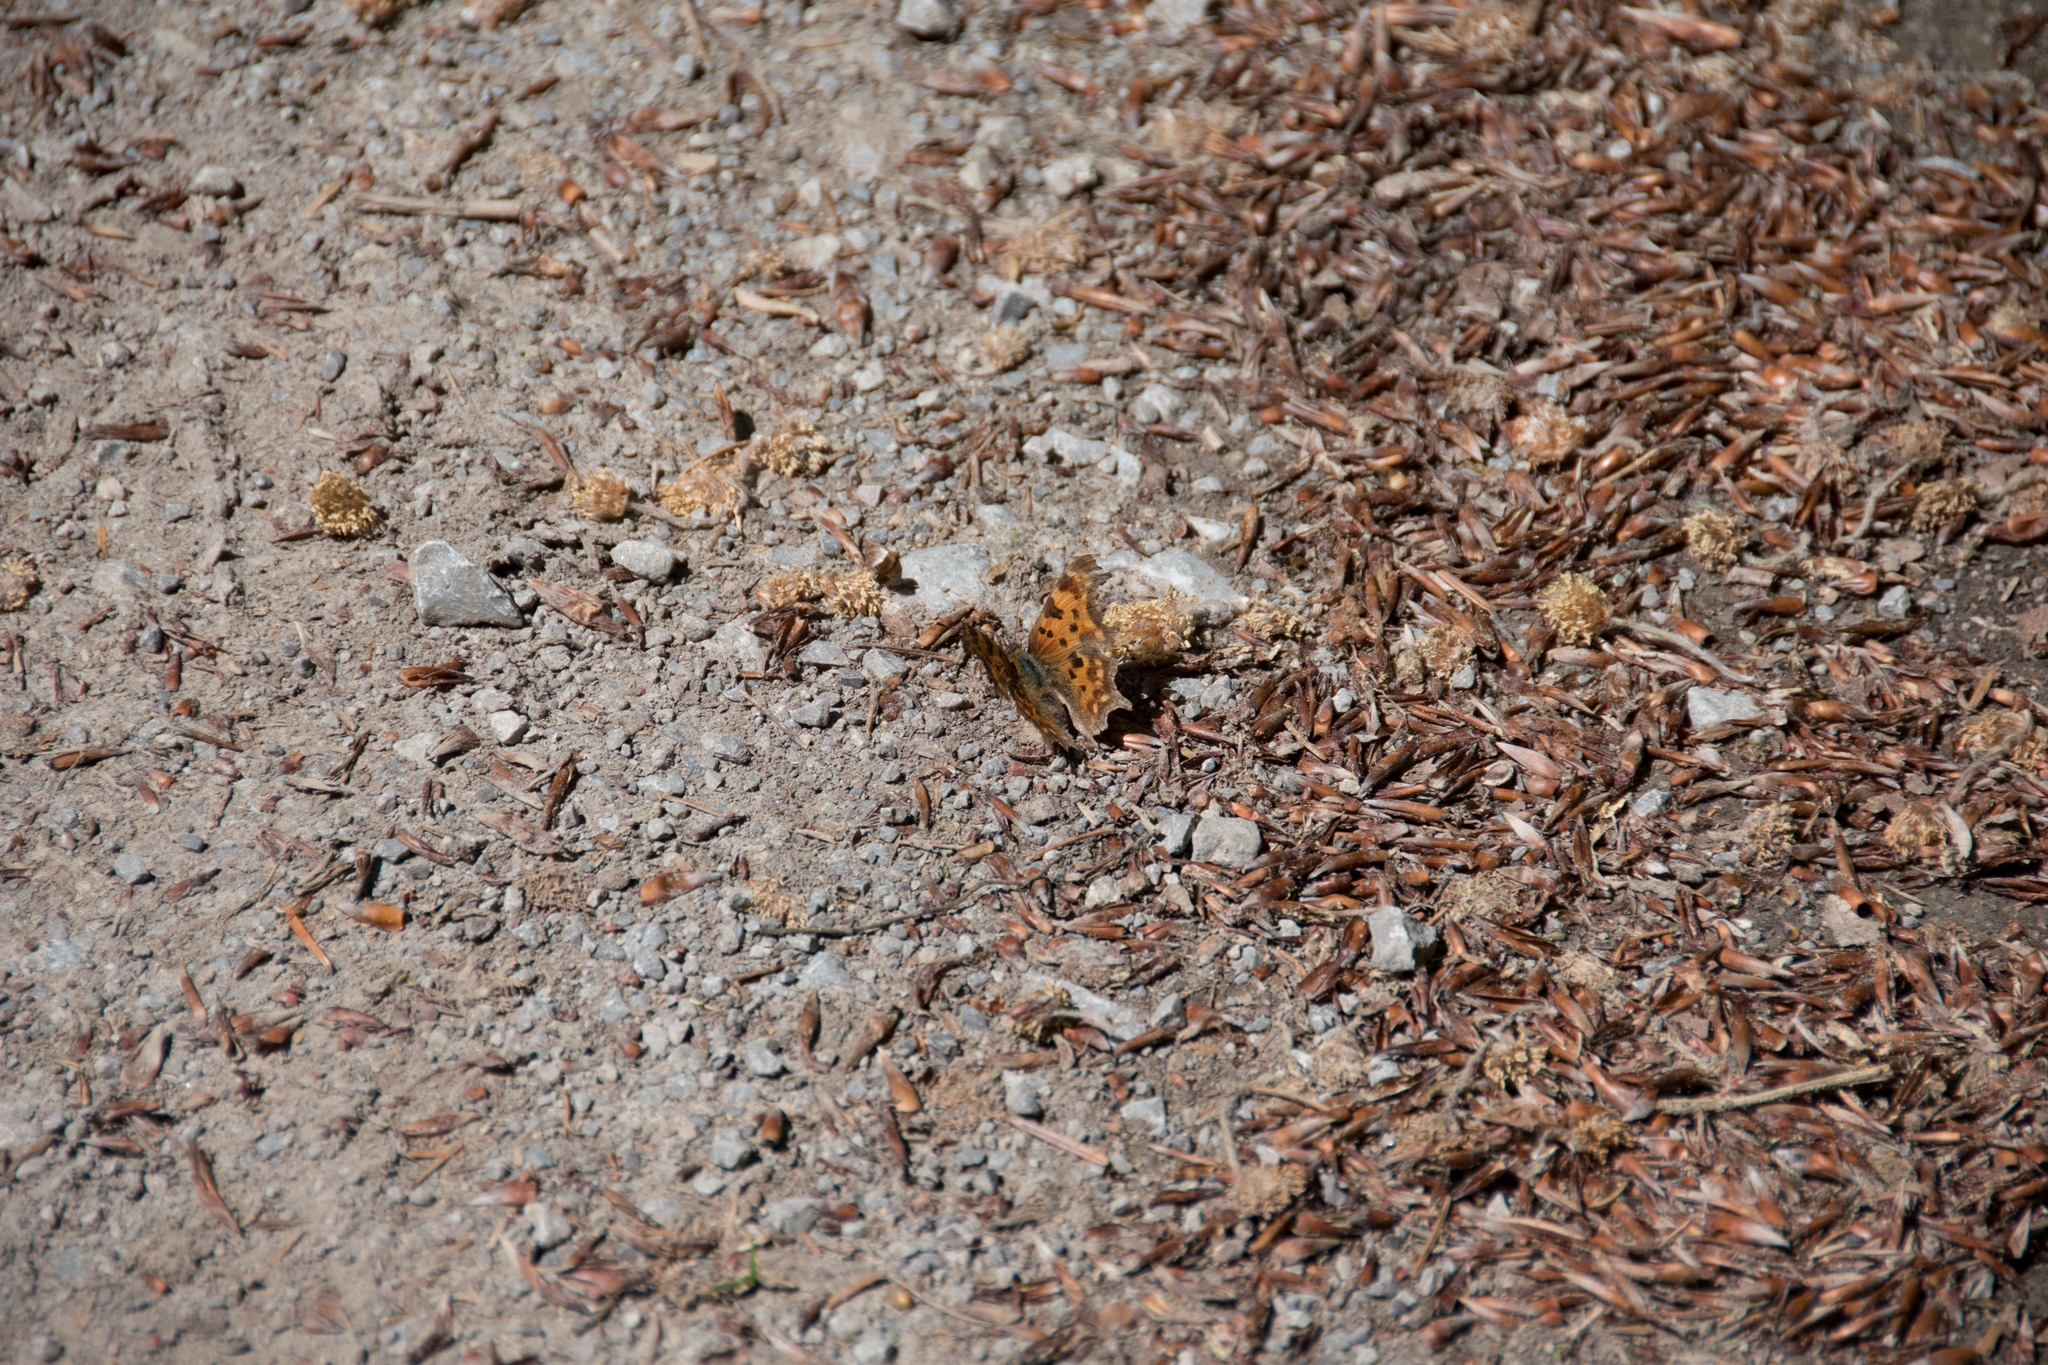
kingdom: Animalia
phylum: Arthropoda
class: Insecta
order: Lepidoptera
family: Nymphalidae
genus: Polygonia
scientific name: Polygonia c-album
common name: Comma
